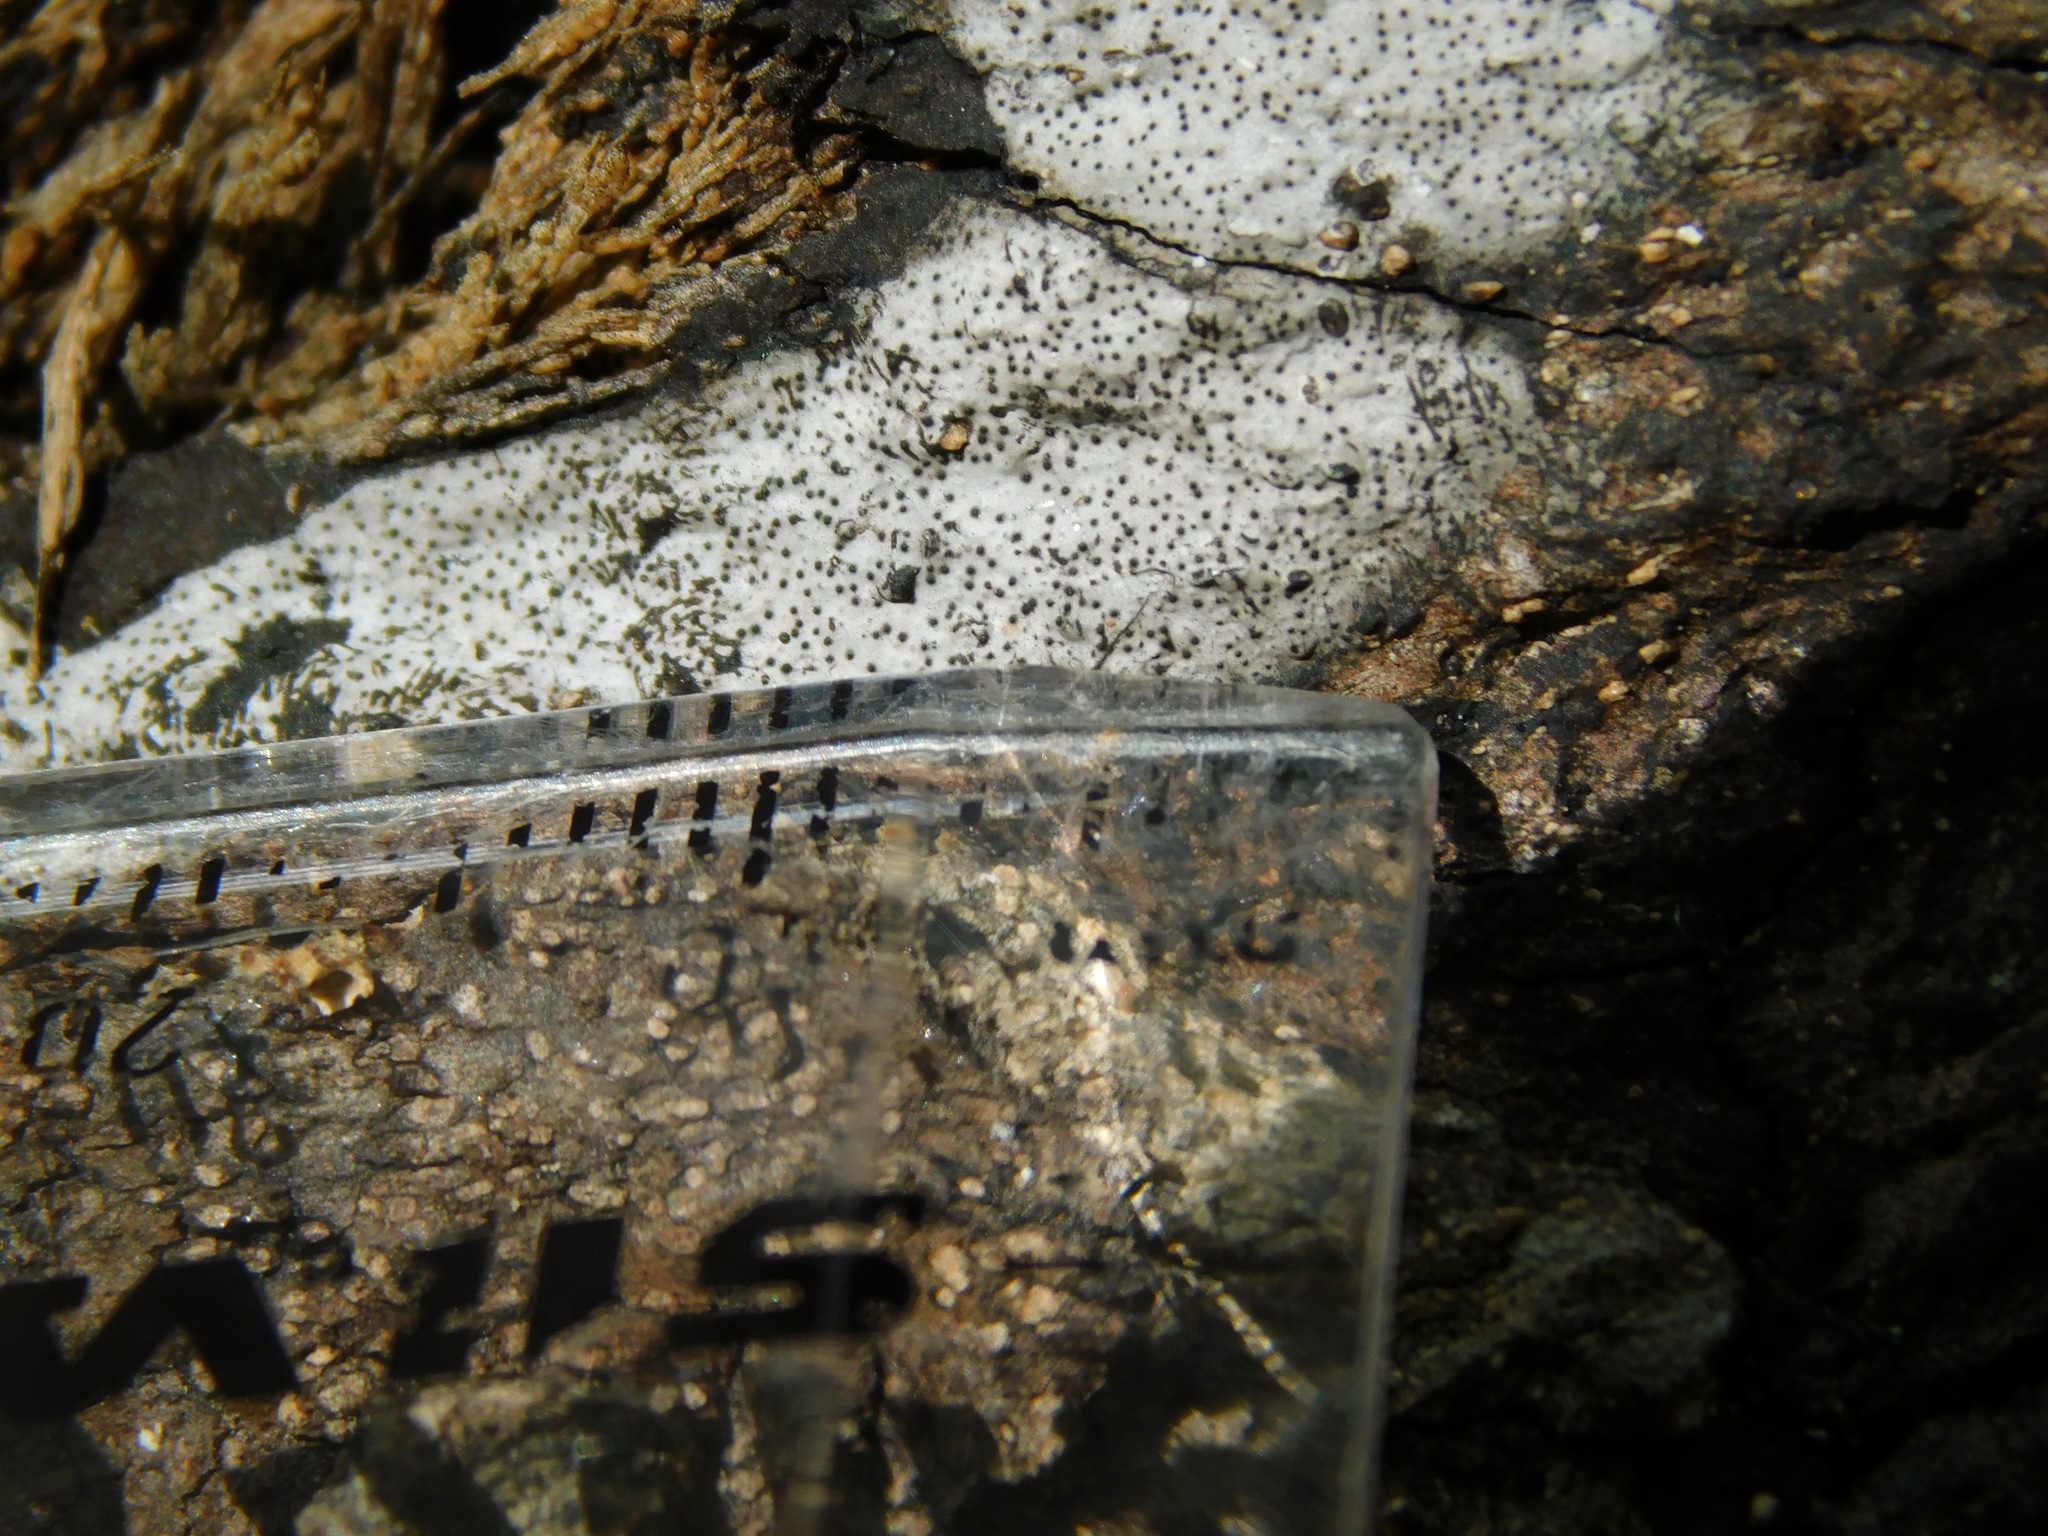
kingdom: Fungi
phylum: Ascomycota
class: Sordariomycetes
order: Xylariales
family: Graphostromataceae
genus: Biscogniauxia
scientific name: Biscogniauxia atropunctata
